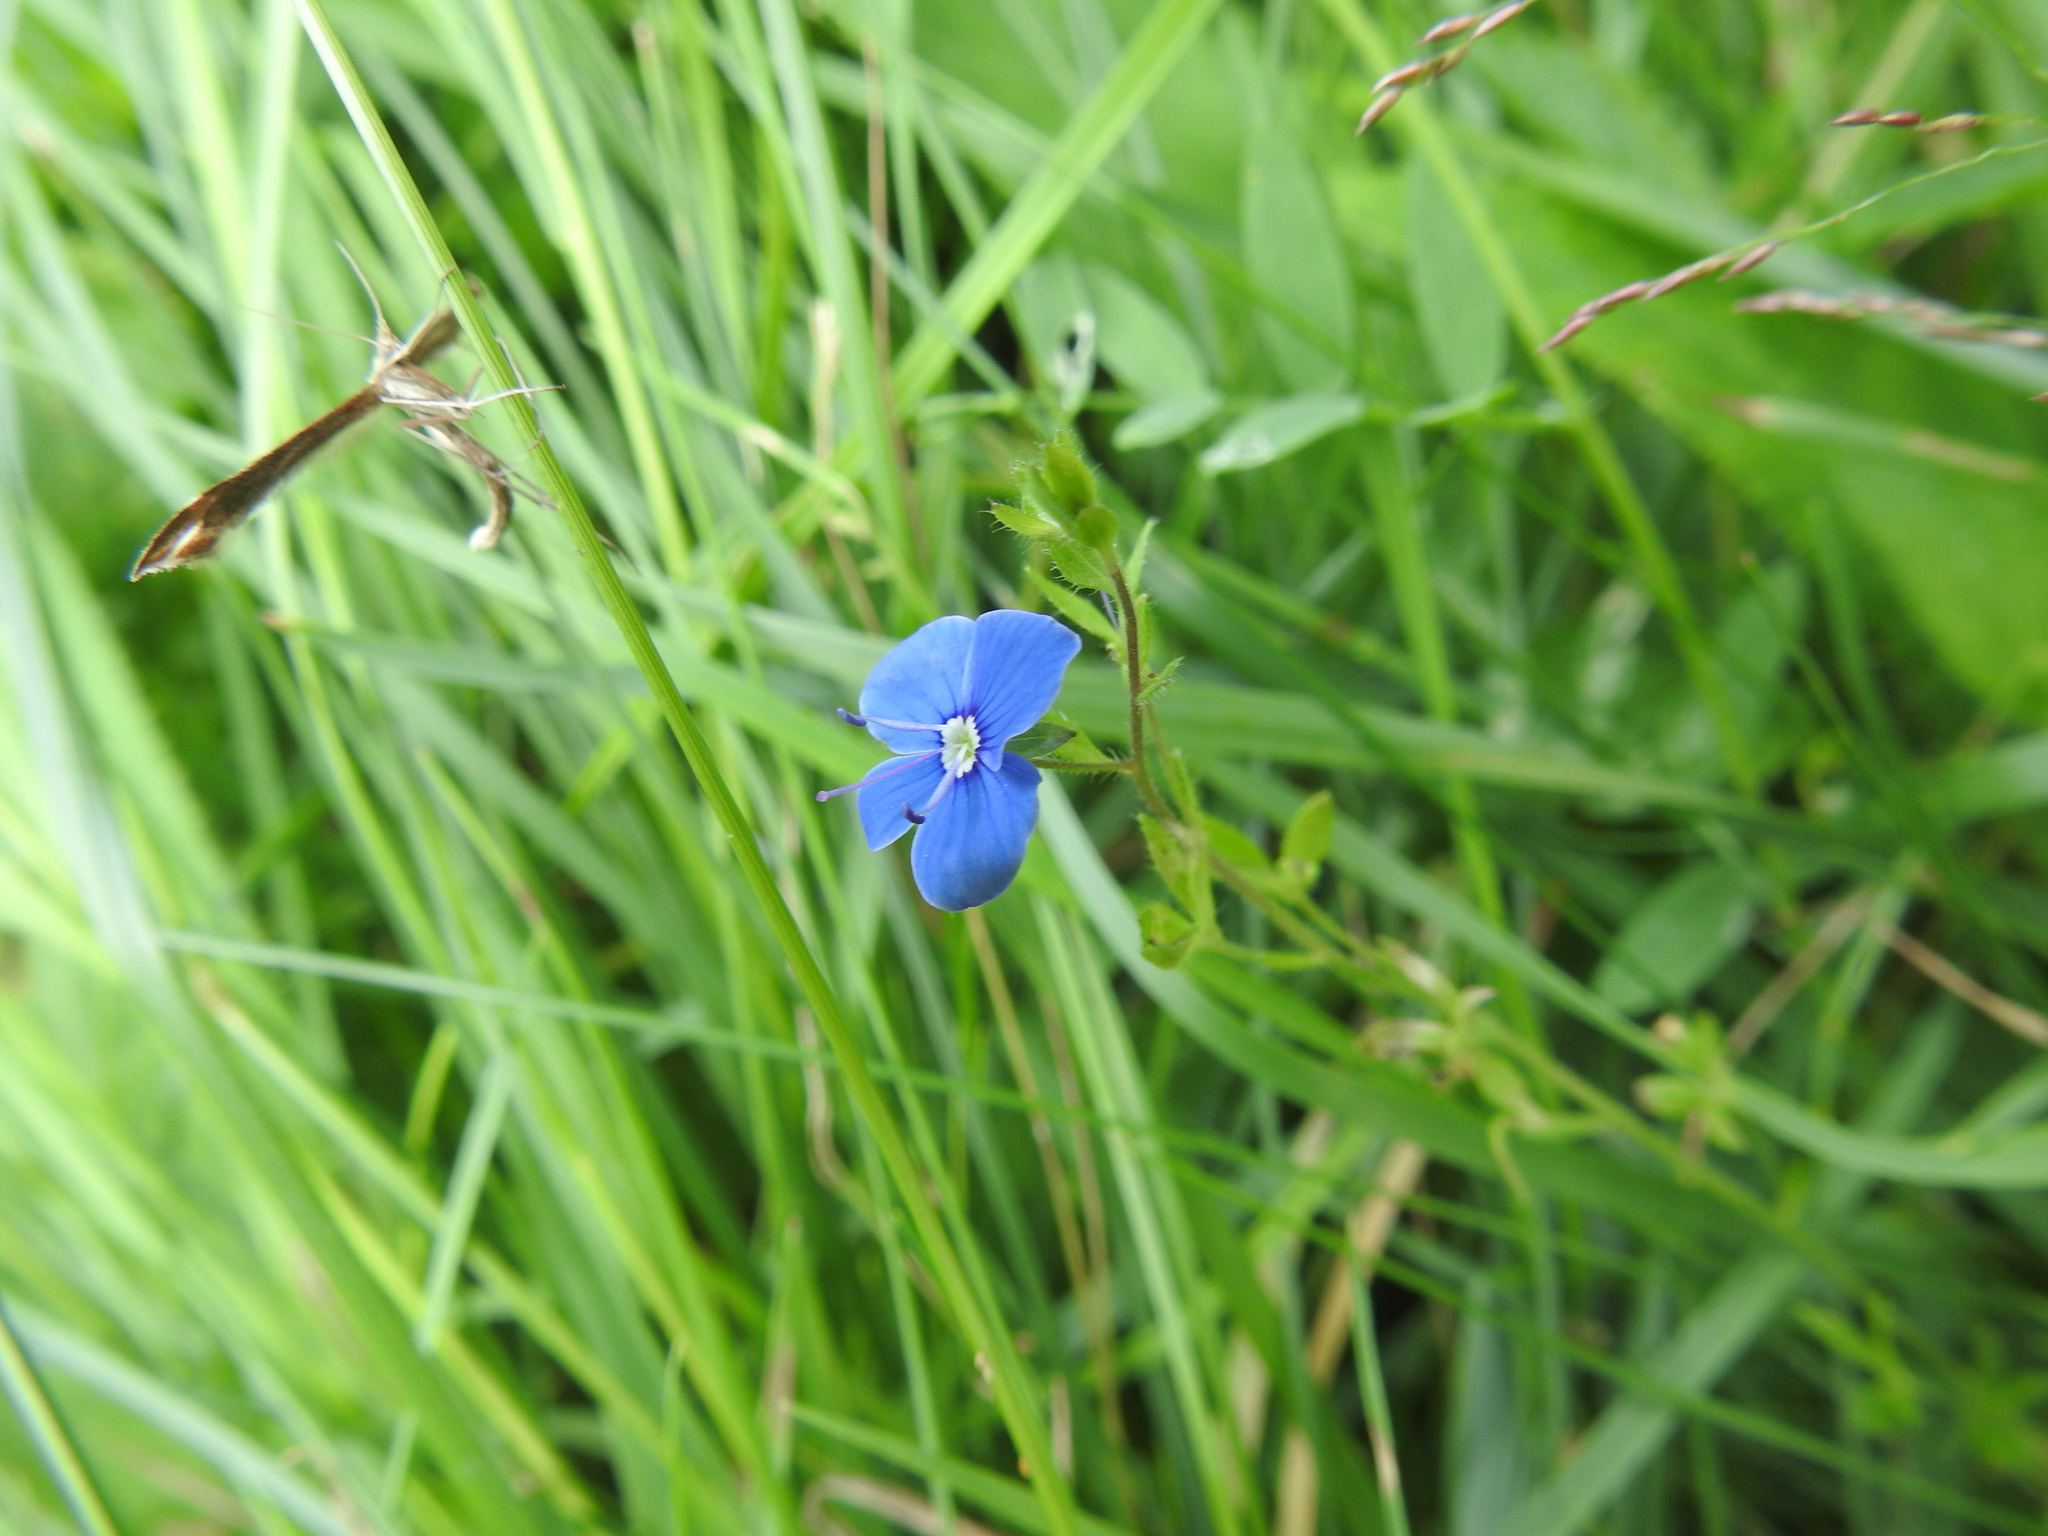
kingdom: Plantae
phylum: Tracheophyta
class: Magnoliopsida
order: Lamiales
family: Plantaginaceae
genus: Veronica
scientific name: Veronica chamaedrys
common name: Germander speedwell
